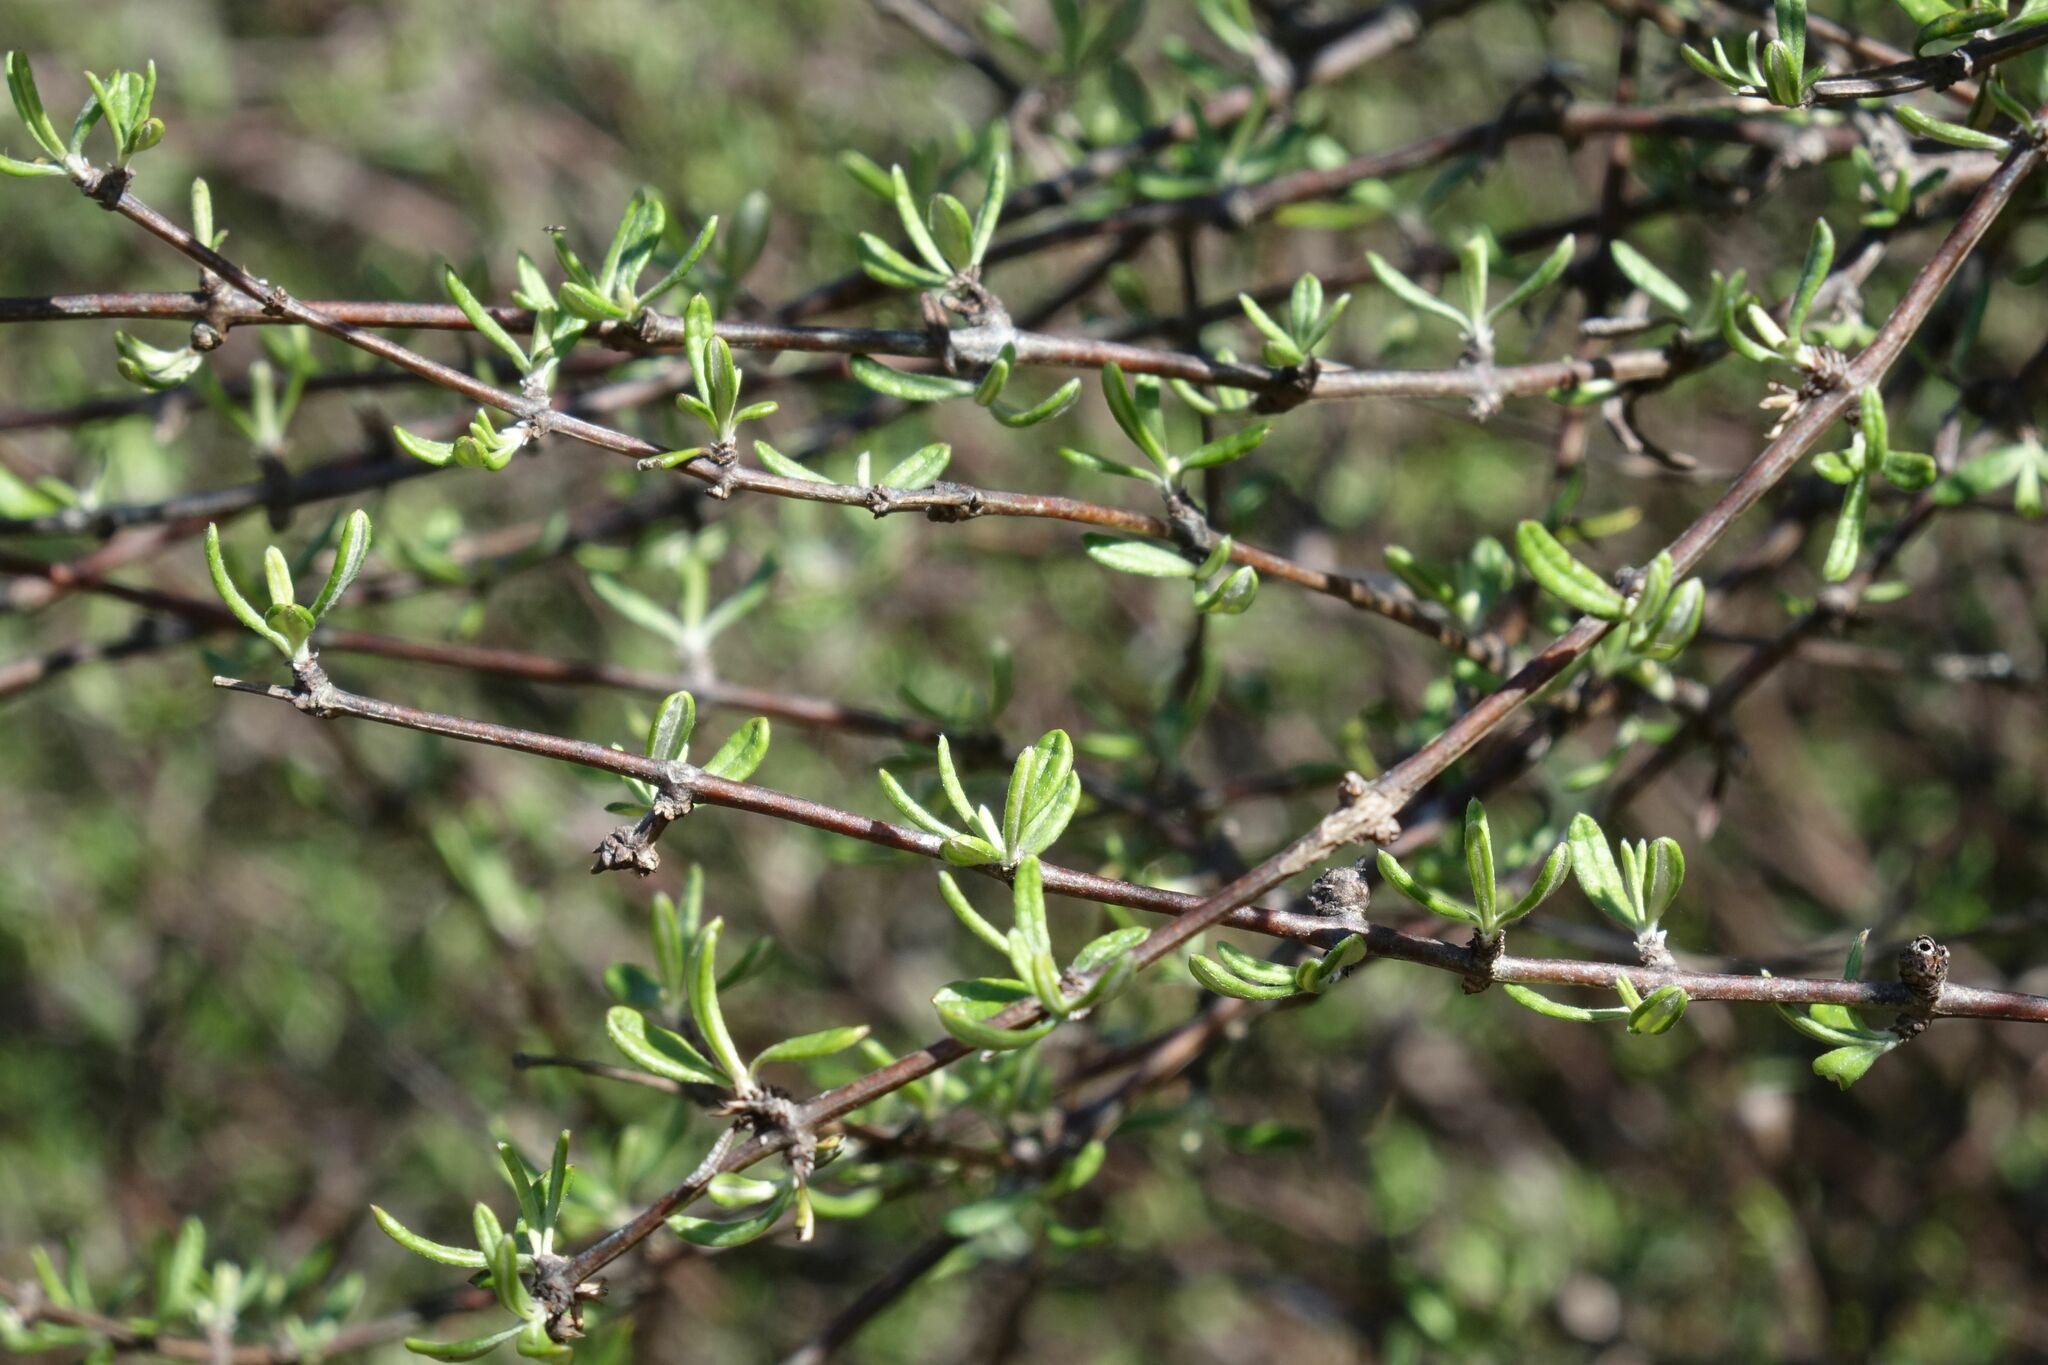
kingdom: Plantae
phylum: Tracheophyta
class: Magnoliopsida
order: Asterales
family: Asteraceae
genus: Olearia
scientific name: Olearia bullata
